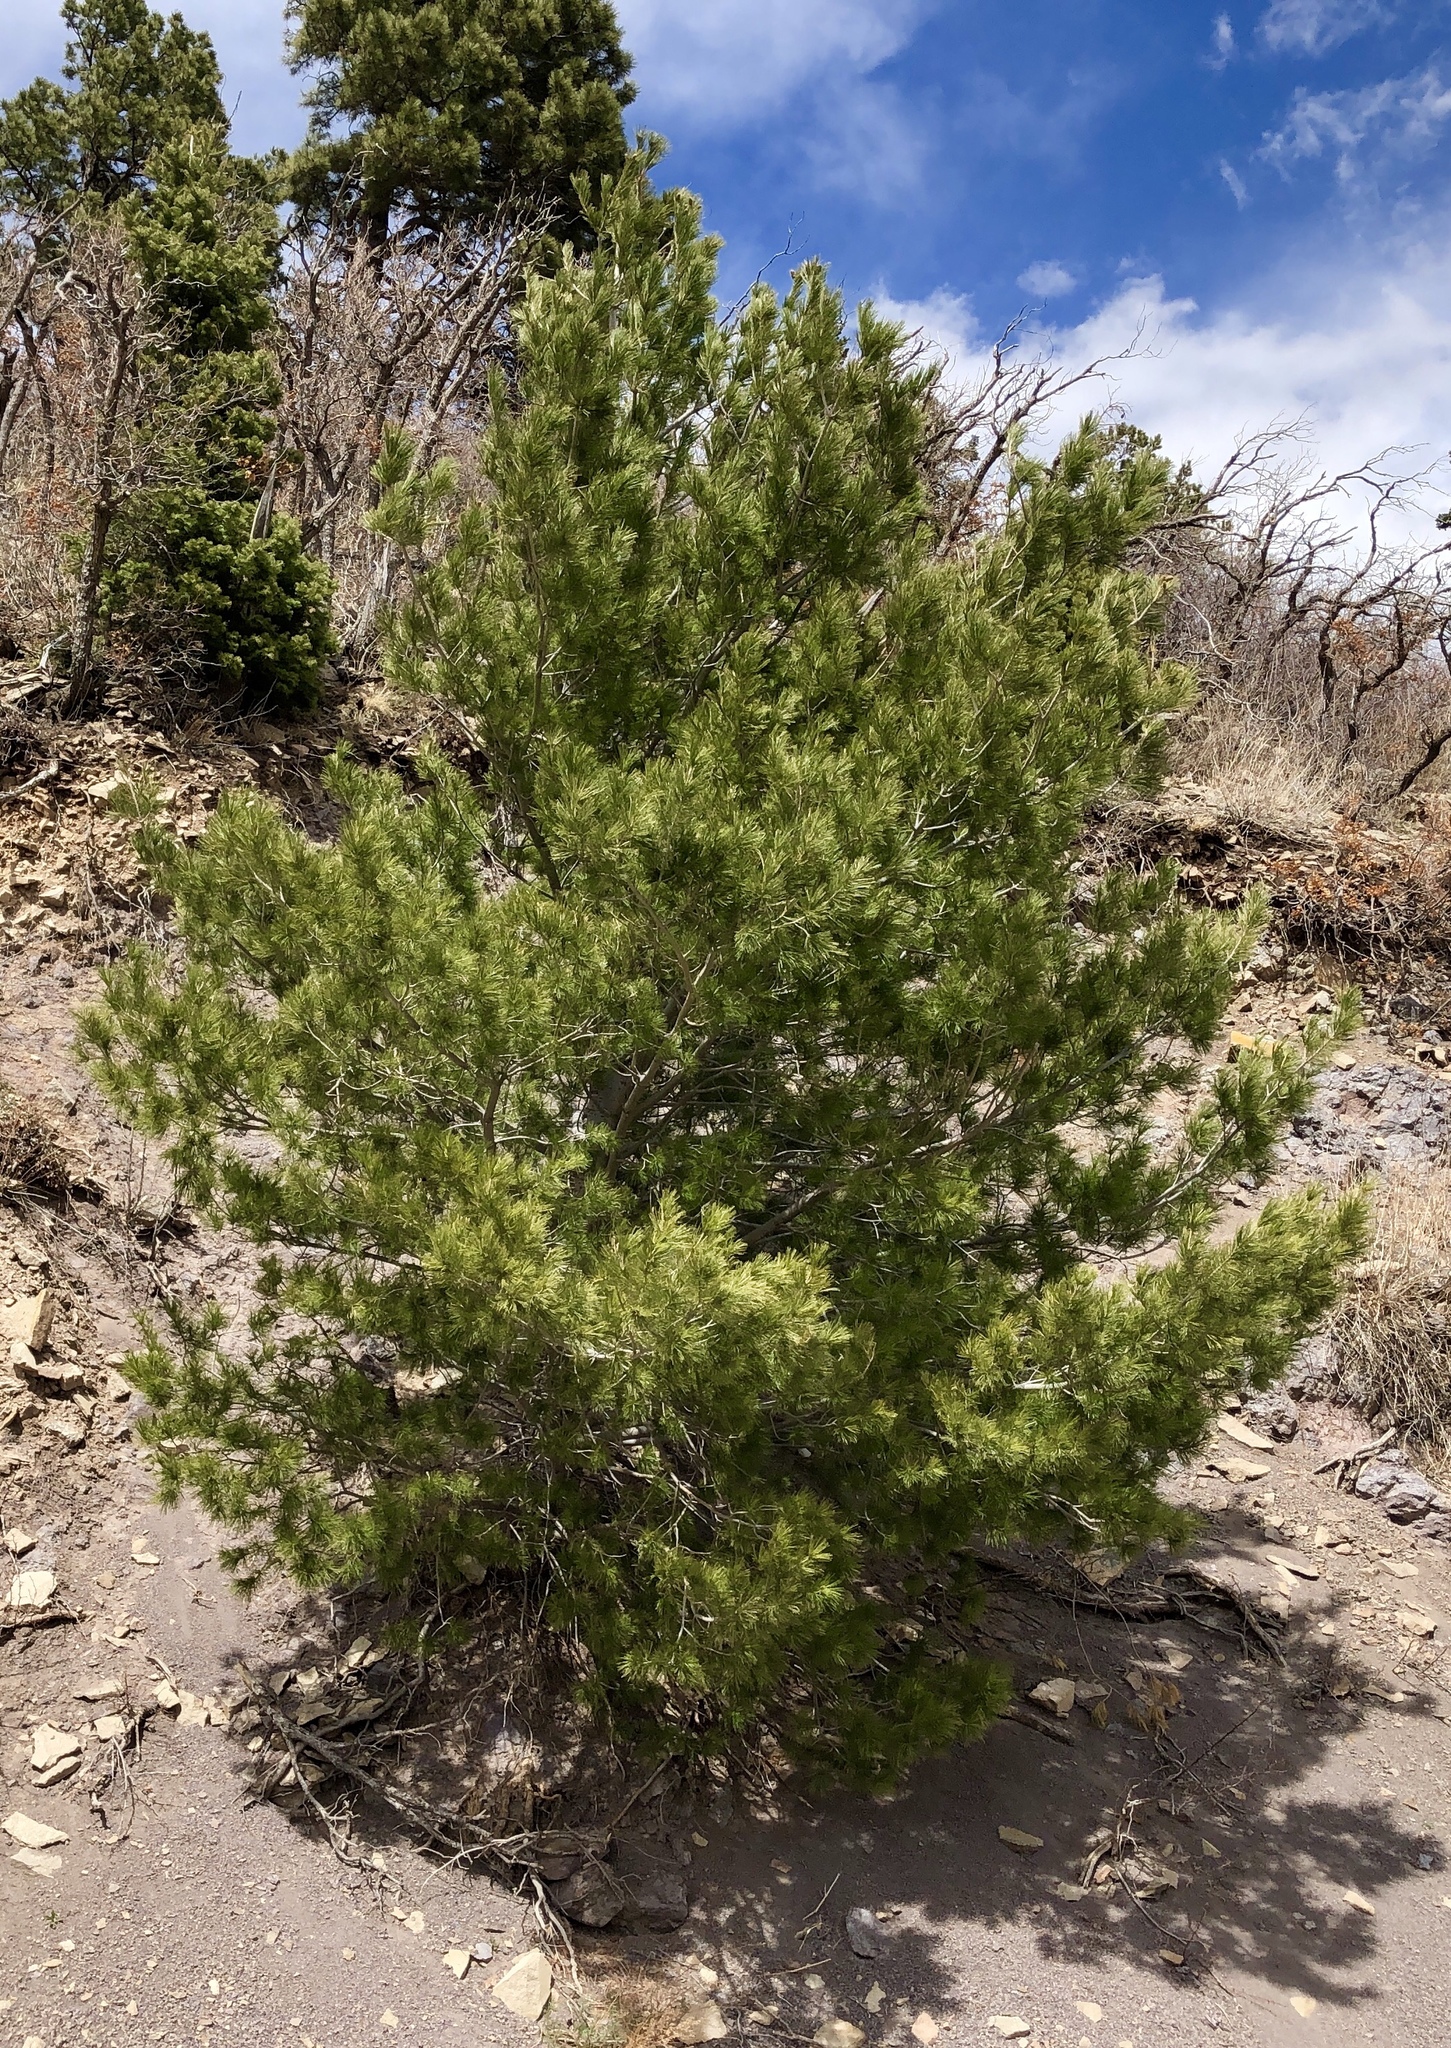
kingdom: Plantae
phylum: Tracheophyta
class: Pinopsida
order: Pinales
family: Pinaceae
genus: Pinus
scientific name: Pinus strobiformis
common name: Southwestern white pine
